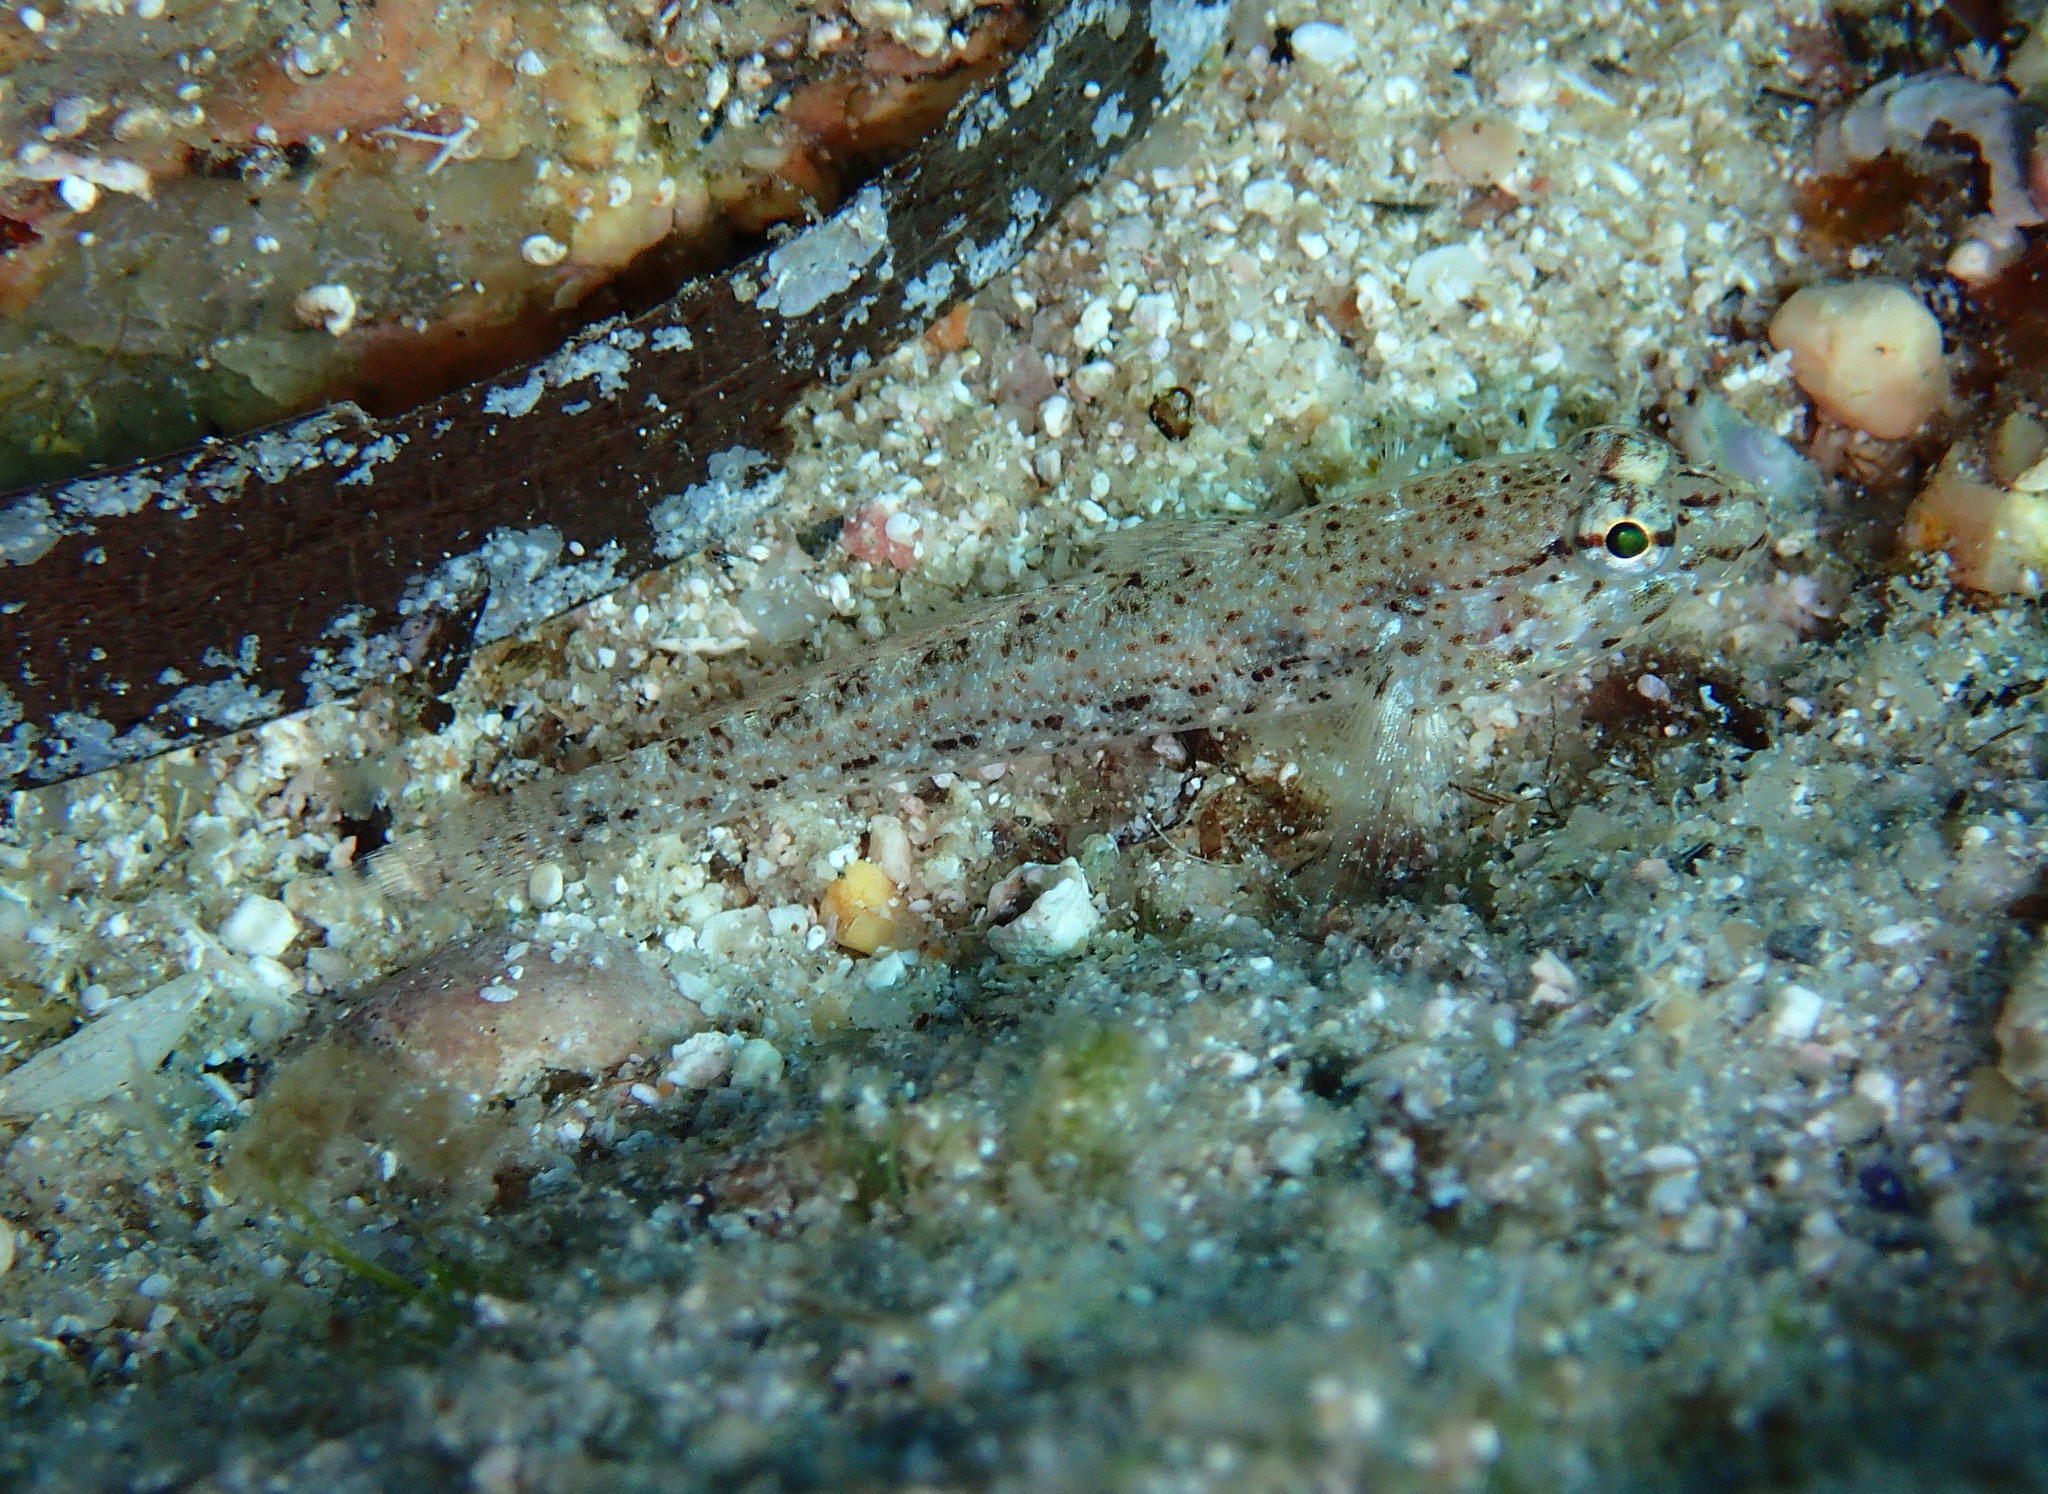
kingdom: Animalia
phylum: Chordata
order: Perciformes
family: Gobiidae
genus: Gobius
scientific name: Gobius incognitus
